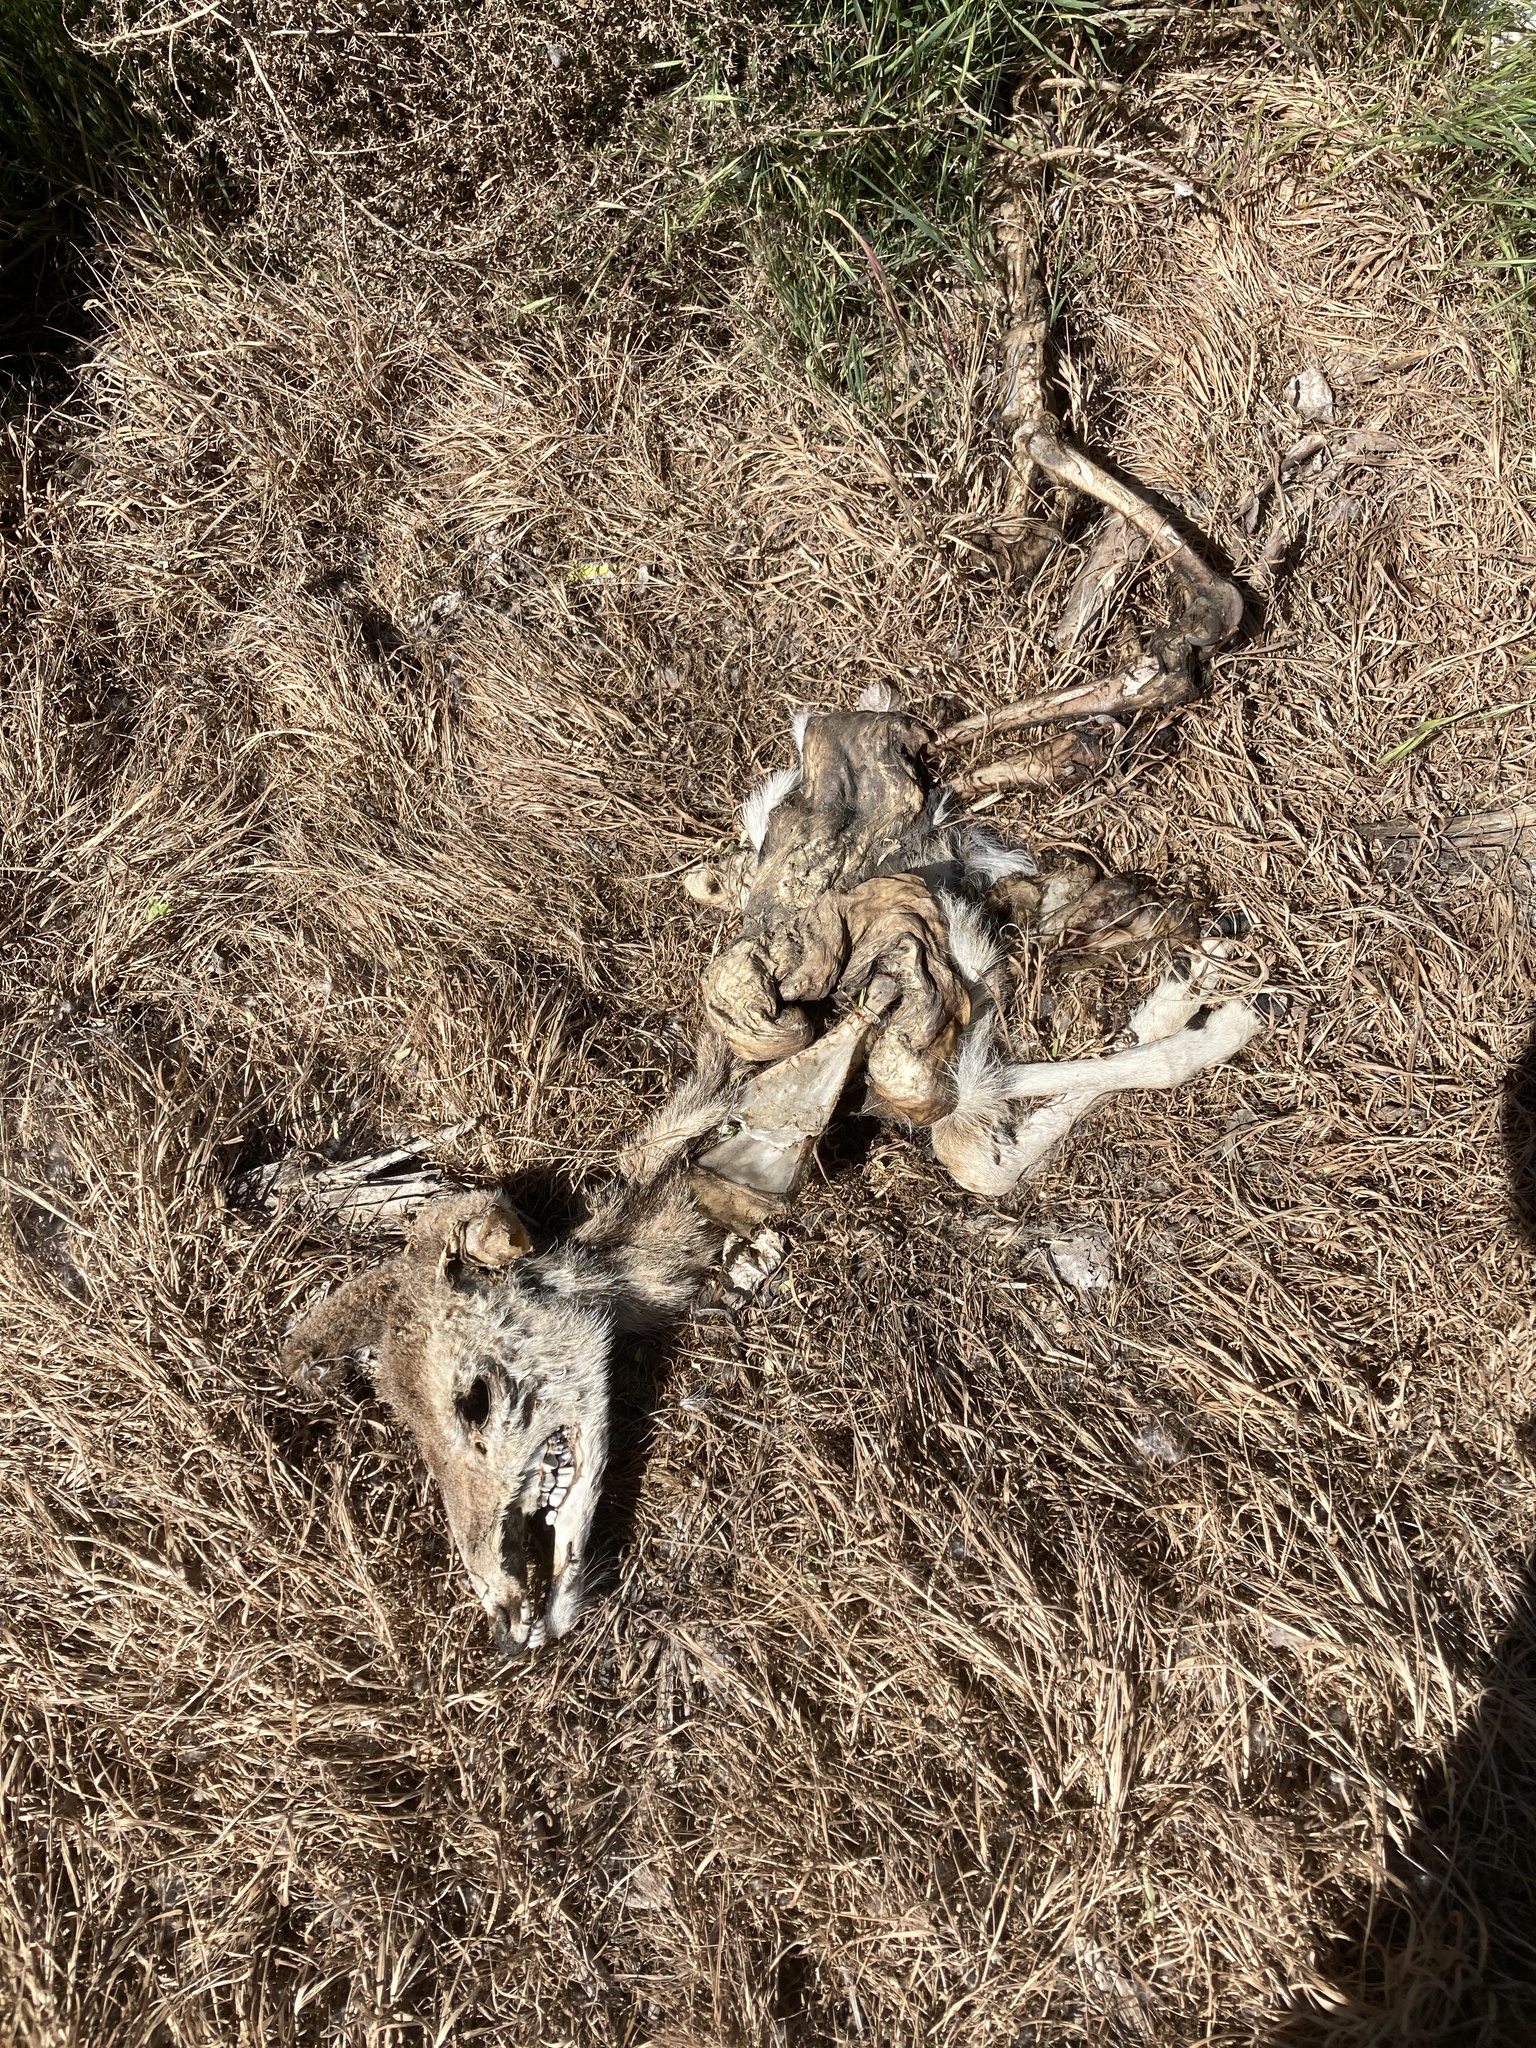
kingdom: Animalia
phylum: Chordata
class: Mammalia
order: Artiodactyla
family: Cervidae
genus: Odocoileus
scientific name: Odocoileus hemionus
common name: Mule deer
